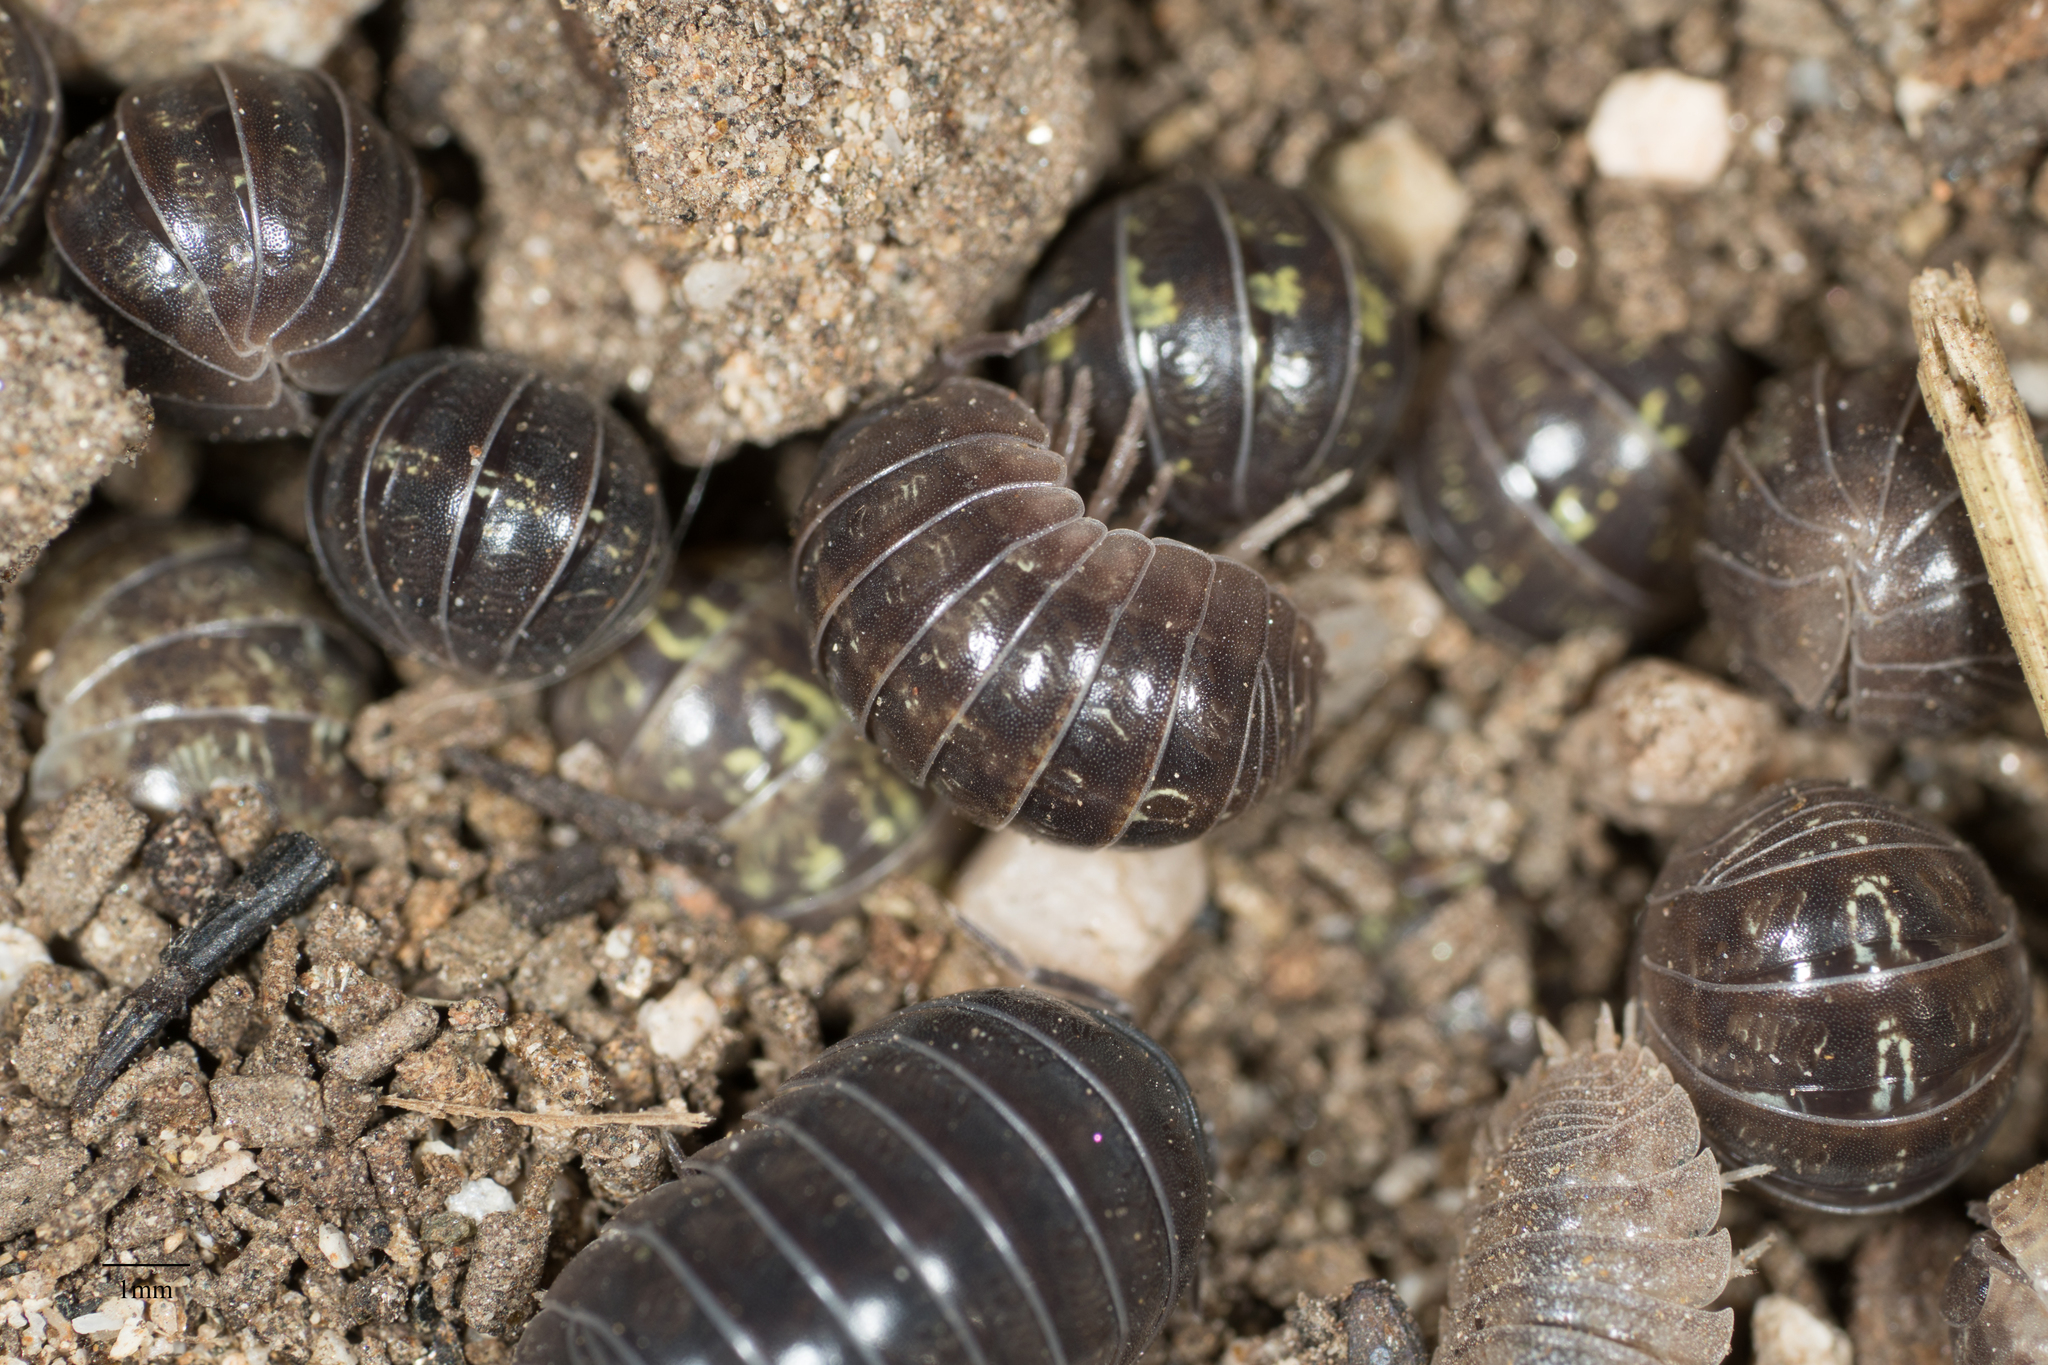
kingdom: Animalia
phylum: Arthropoda
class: Malacostraca
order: Isopoda
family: Armadillidiidae
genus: Armadillidium
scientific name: Armadillidium vulgare
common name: Common pill woodlouse
